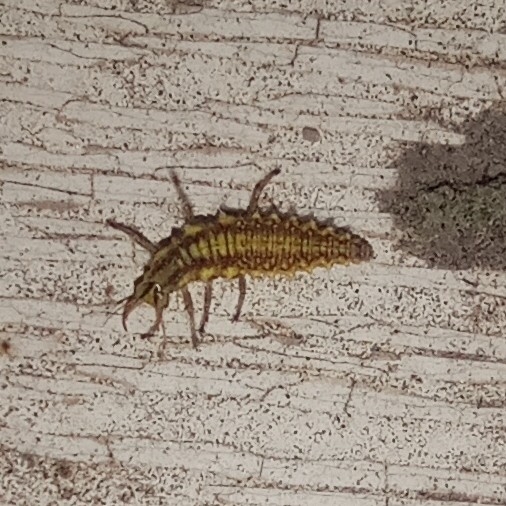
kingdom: Animalia
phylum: Arthropoda
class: Insecta
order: Neuroptera
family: Chrysopidae
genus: Chrysoperla
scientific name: Chrysoperla
